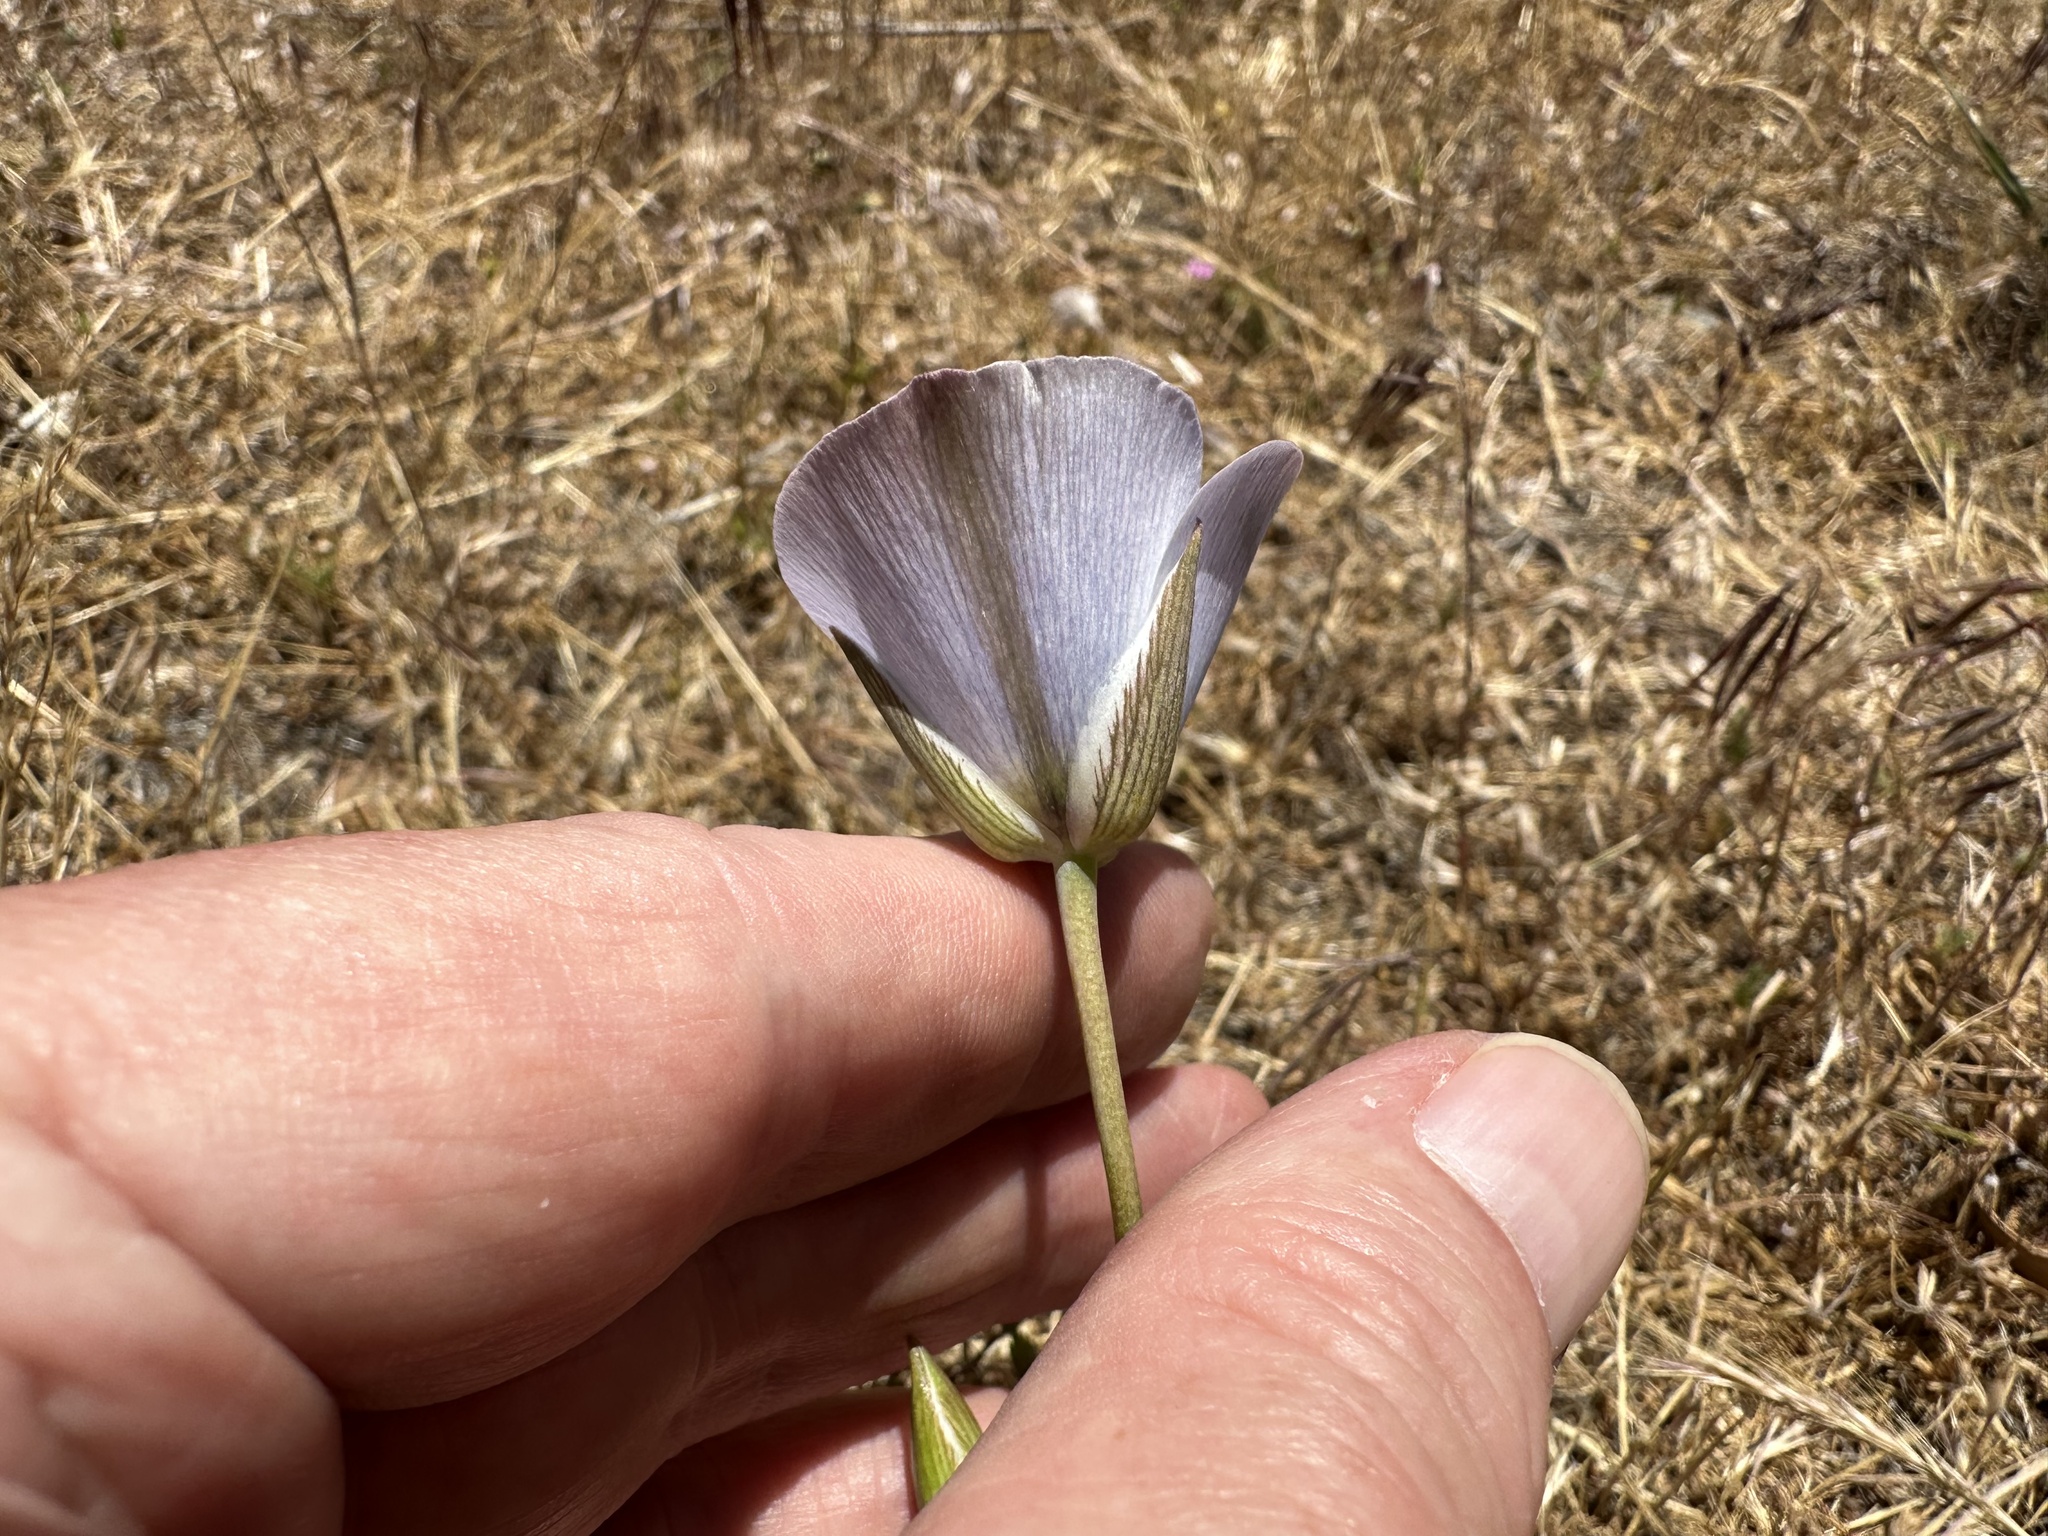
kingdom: Plantae
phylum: Tracheophyta
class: Liliopsida
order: Liliales
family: Liliaceae
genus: Calochortus
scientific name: Calochortus invenustus
